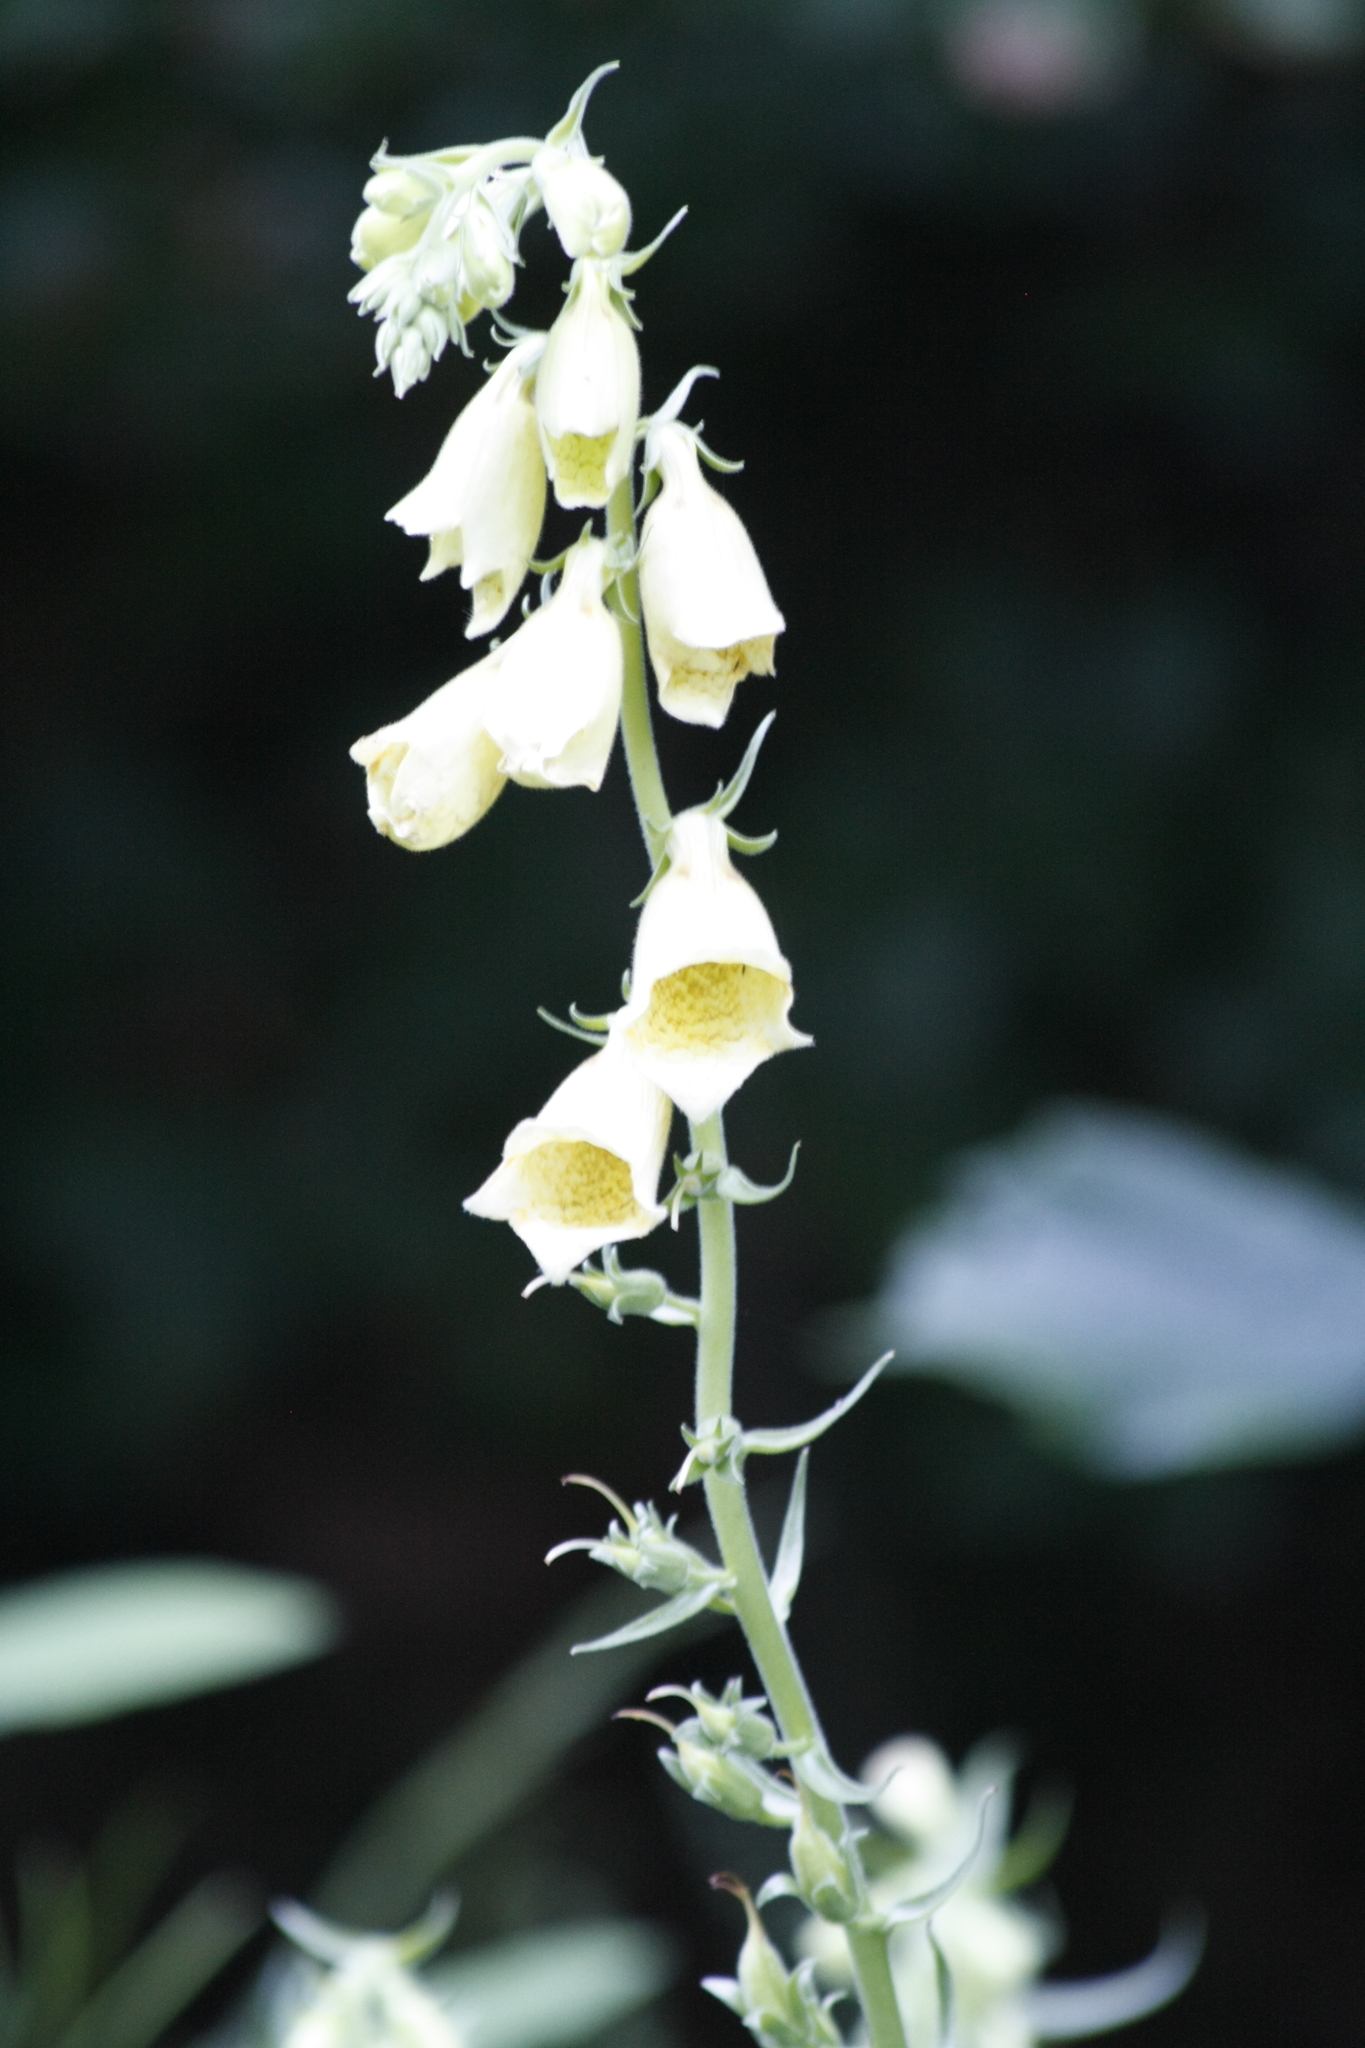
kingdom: Plantae
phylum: Tracheophyta
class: Magnoliopsida
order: Lamiales
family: Plantaginaceae
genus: Digitalis
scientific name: Digitalis grandiflora
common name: Yellow foxglove
